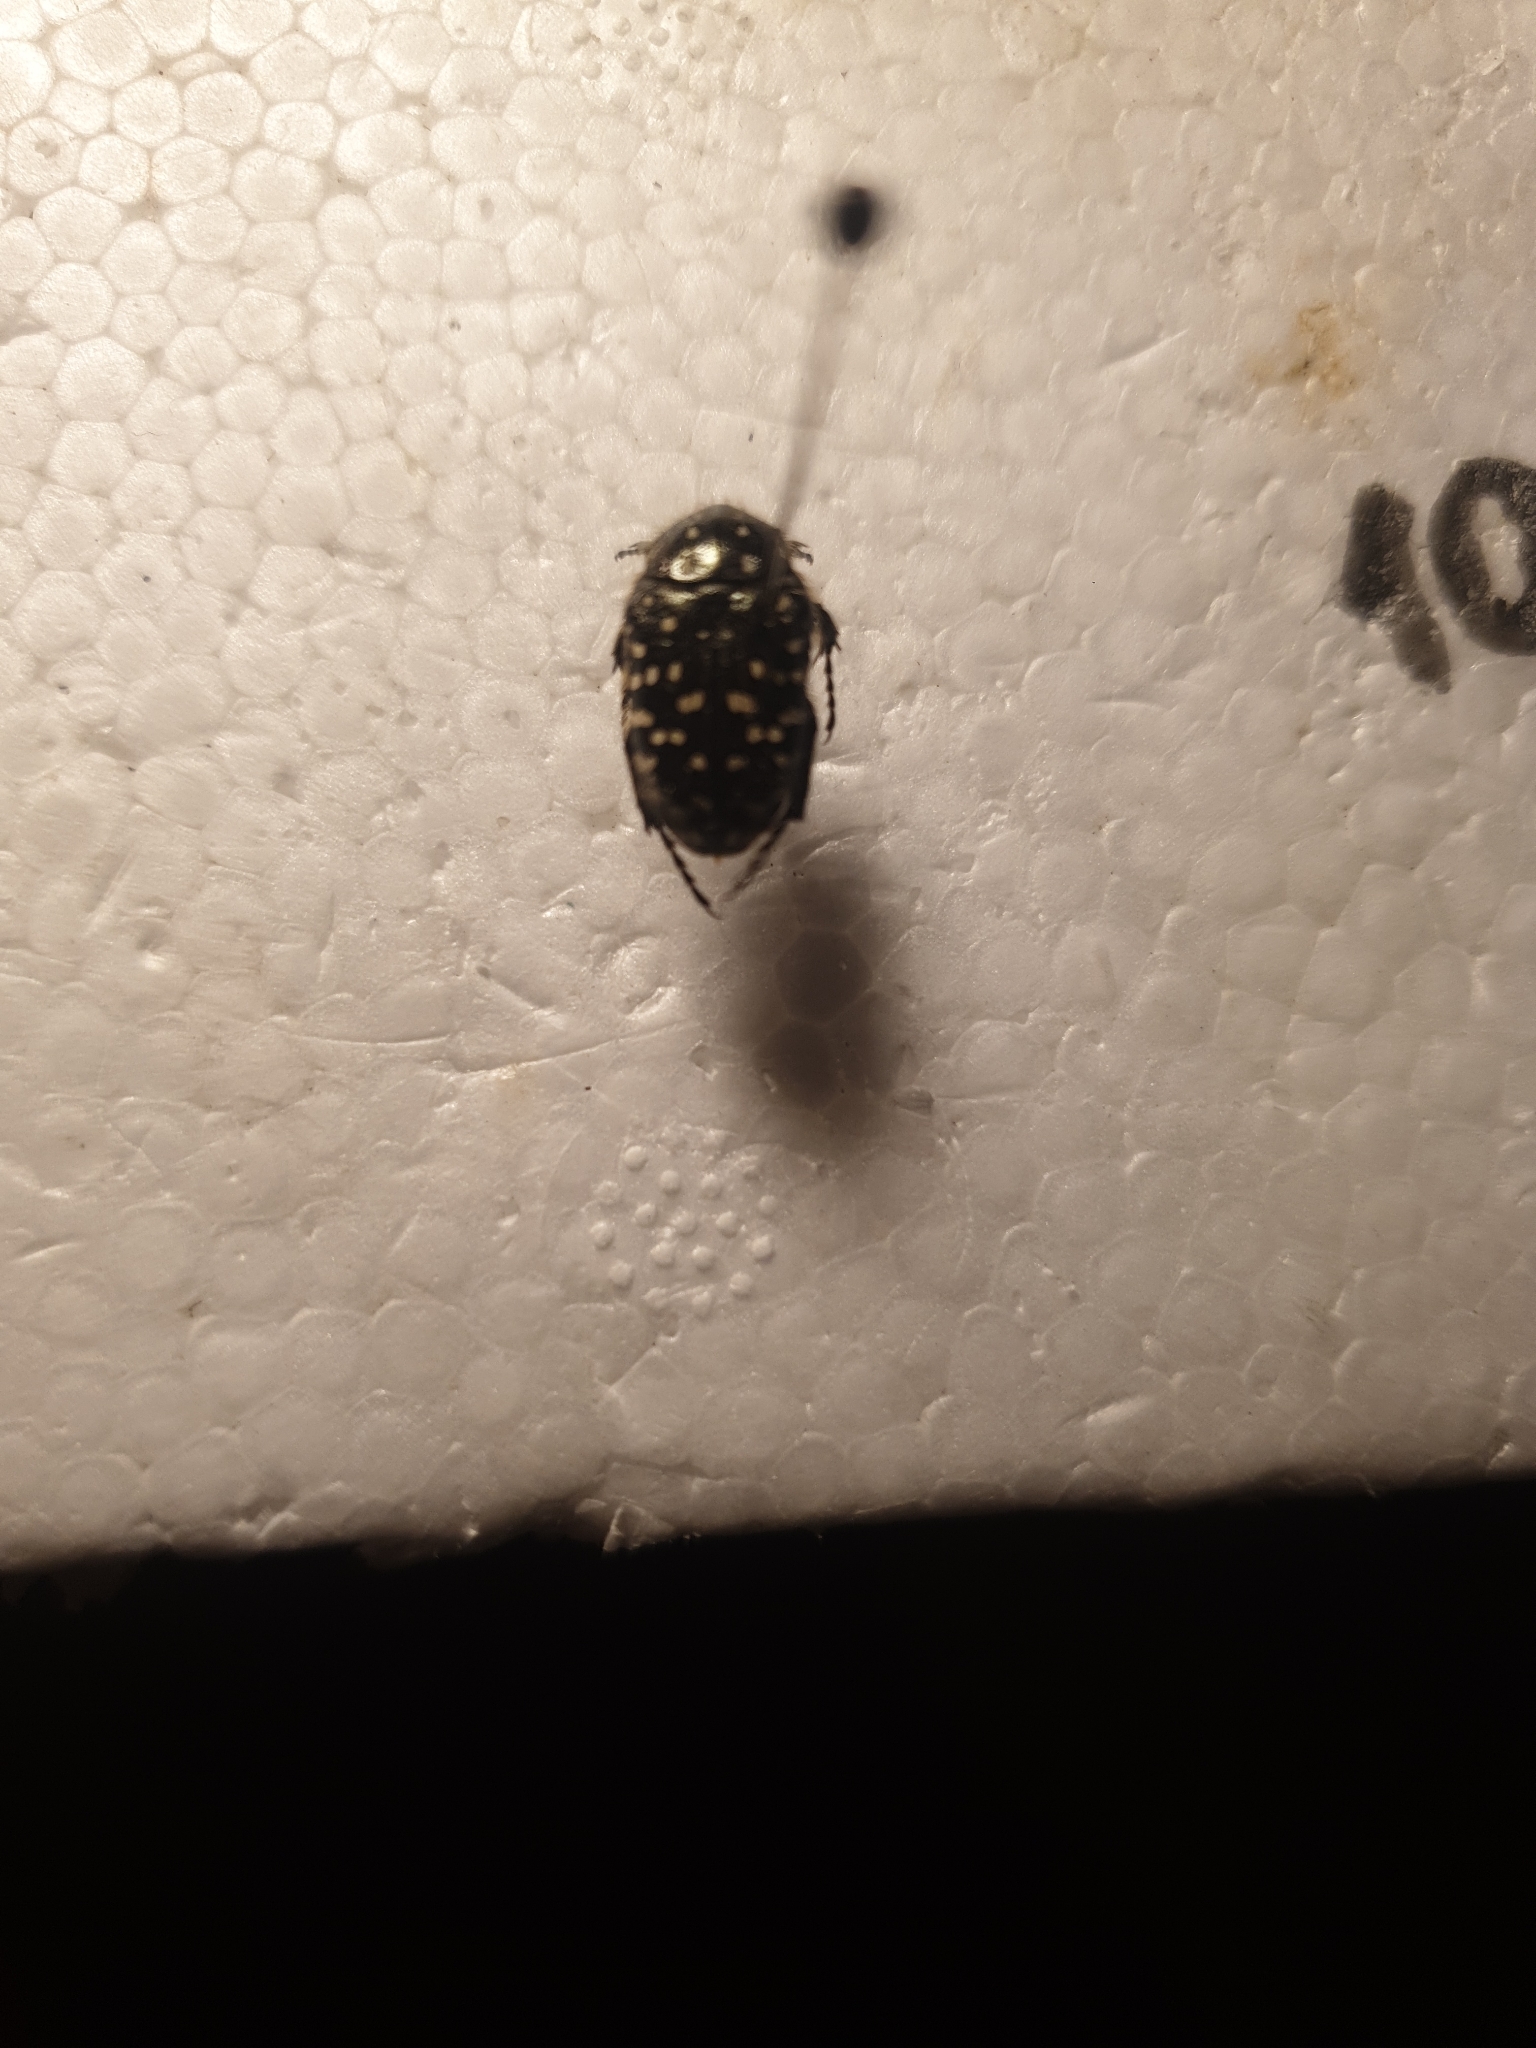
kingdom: Animalia
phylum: Arthropoda
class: Insecta
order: Coleoptera
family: Scarabaeidae
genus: Oxythyrea
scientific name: Oxythyrea funesta
